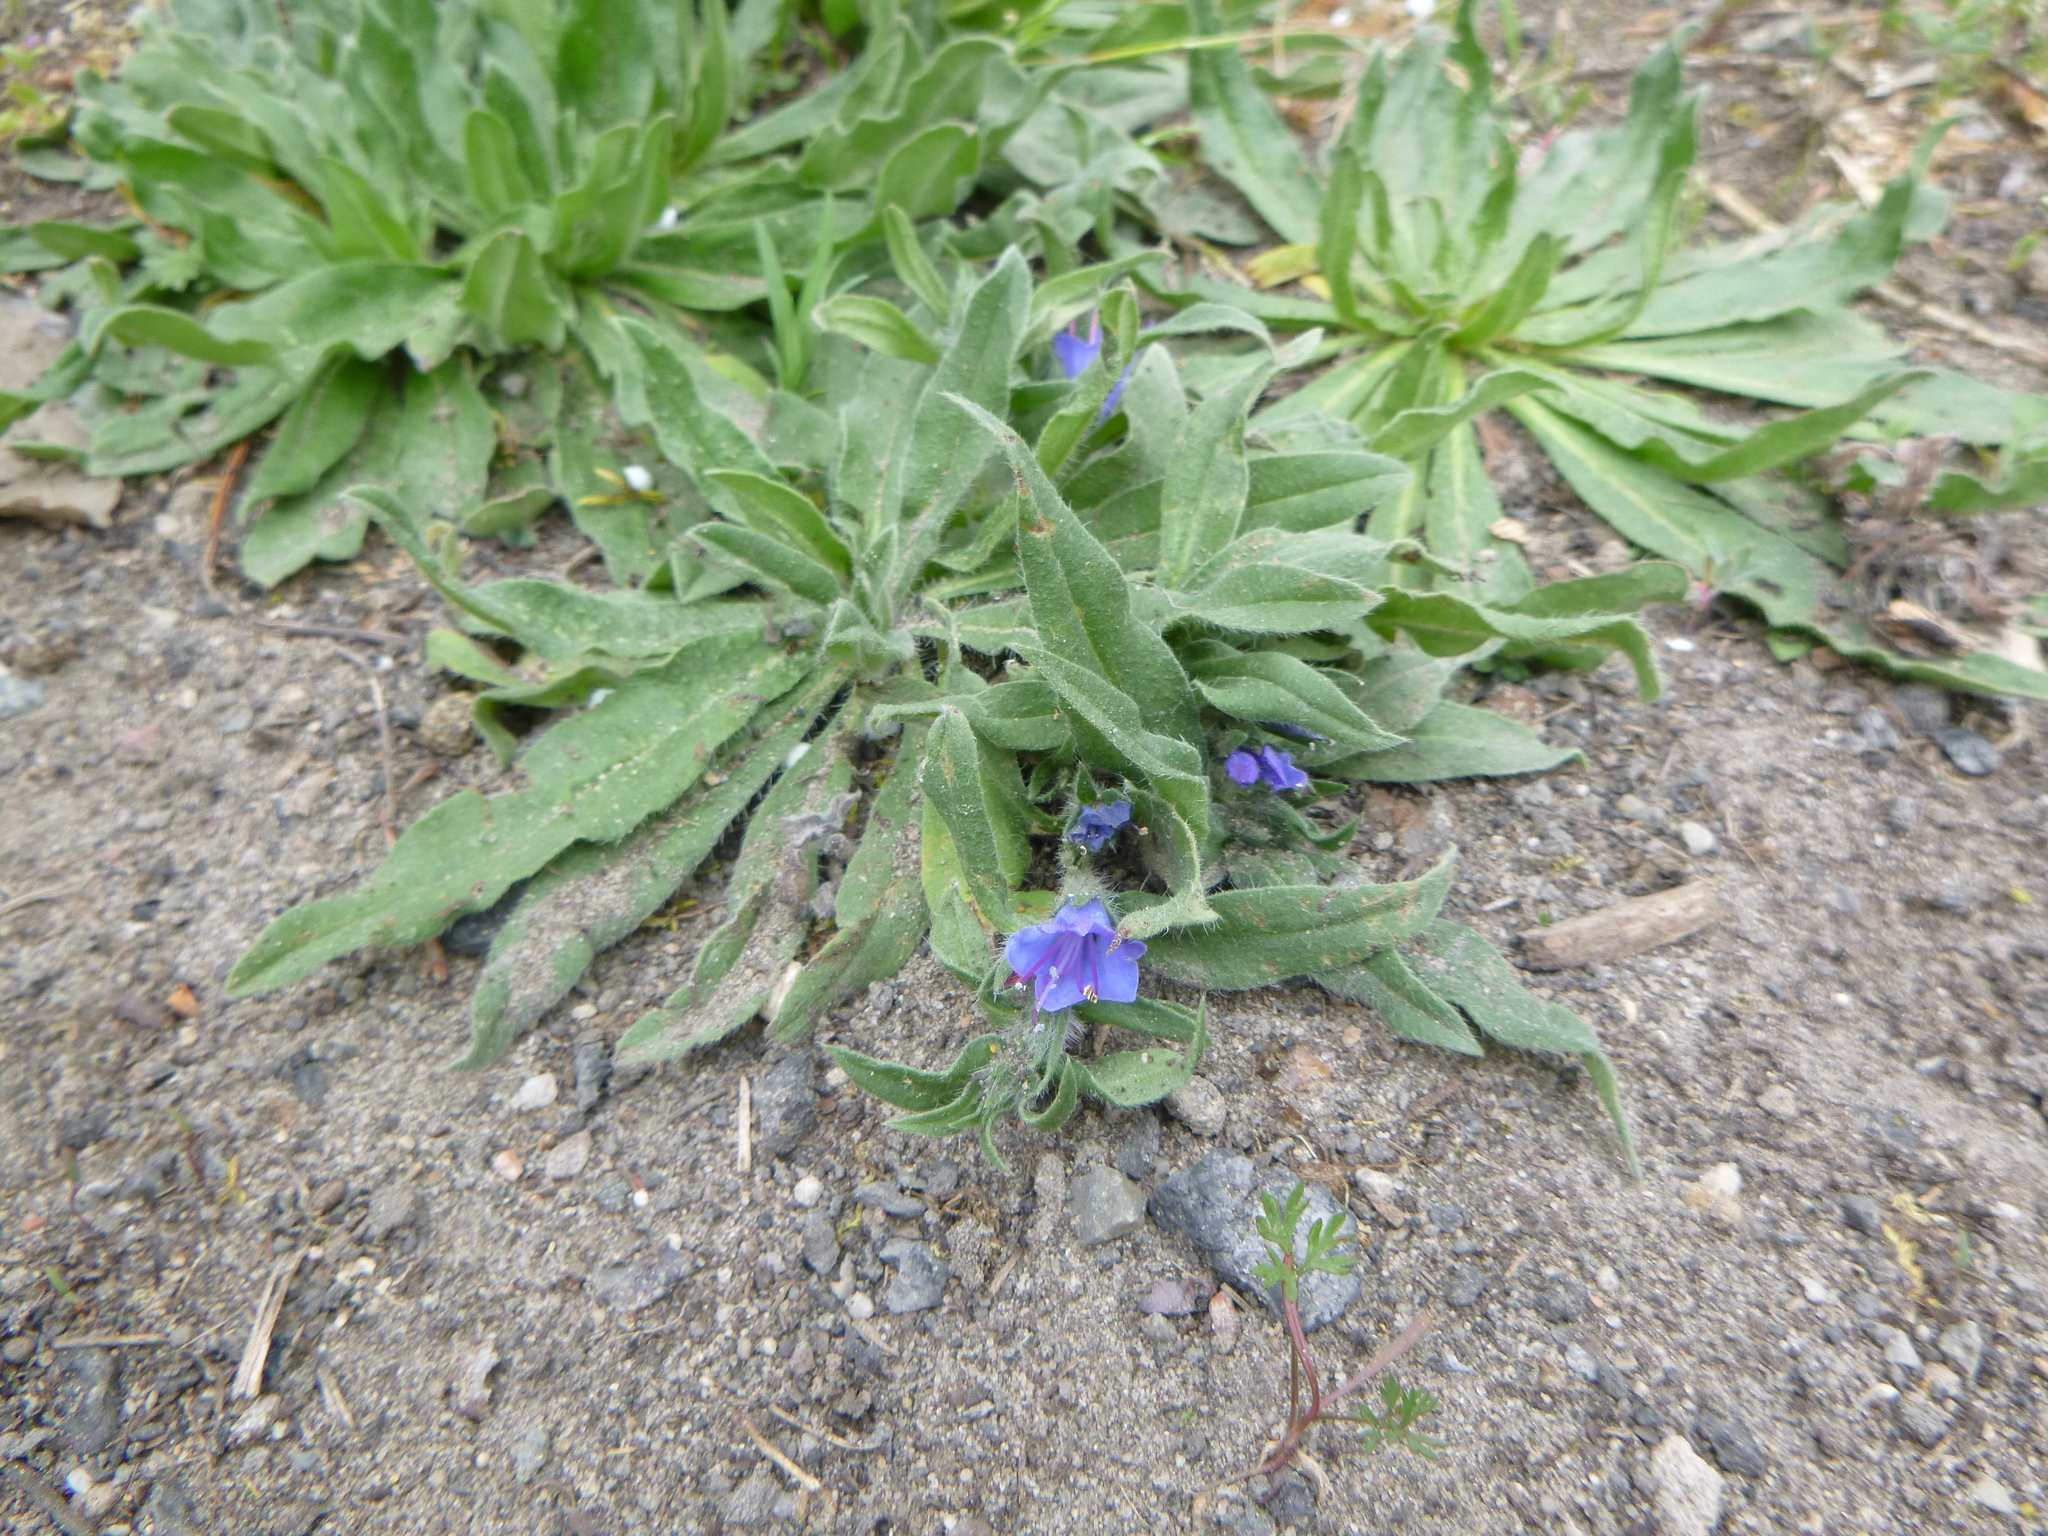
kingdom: Plantae
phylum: Tracheophyta
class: Magnoliopsida
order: Boraginales
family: Boraginaceae
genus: Echium
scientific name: Echium vulgare
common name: Common viper's bugloss
